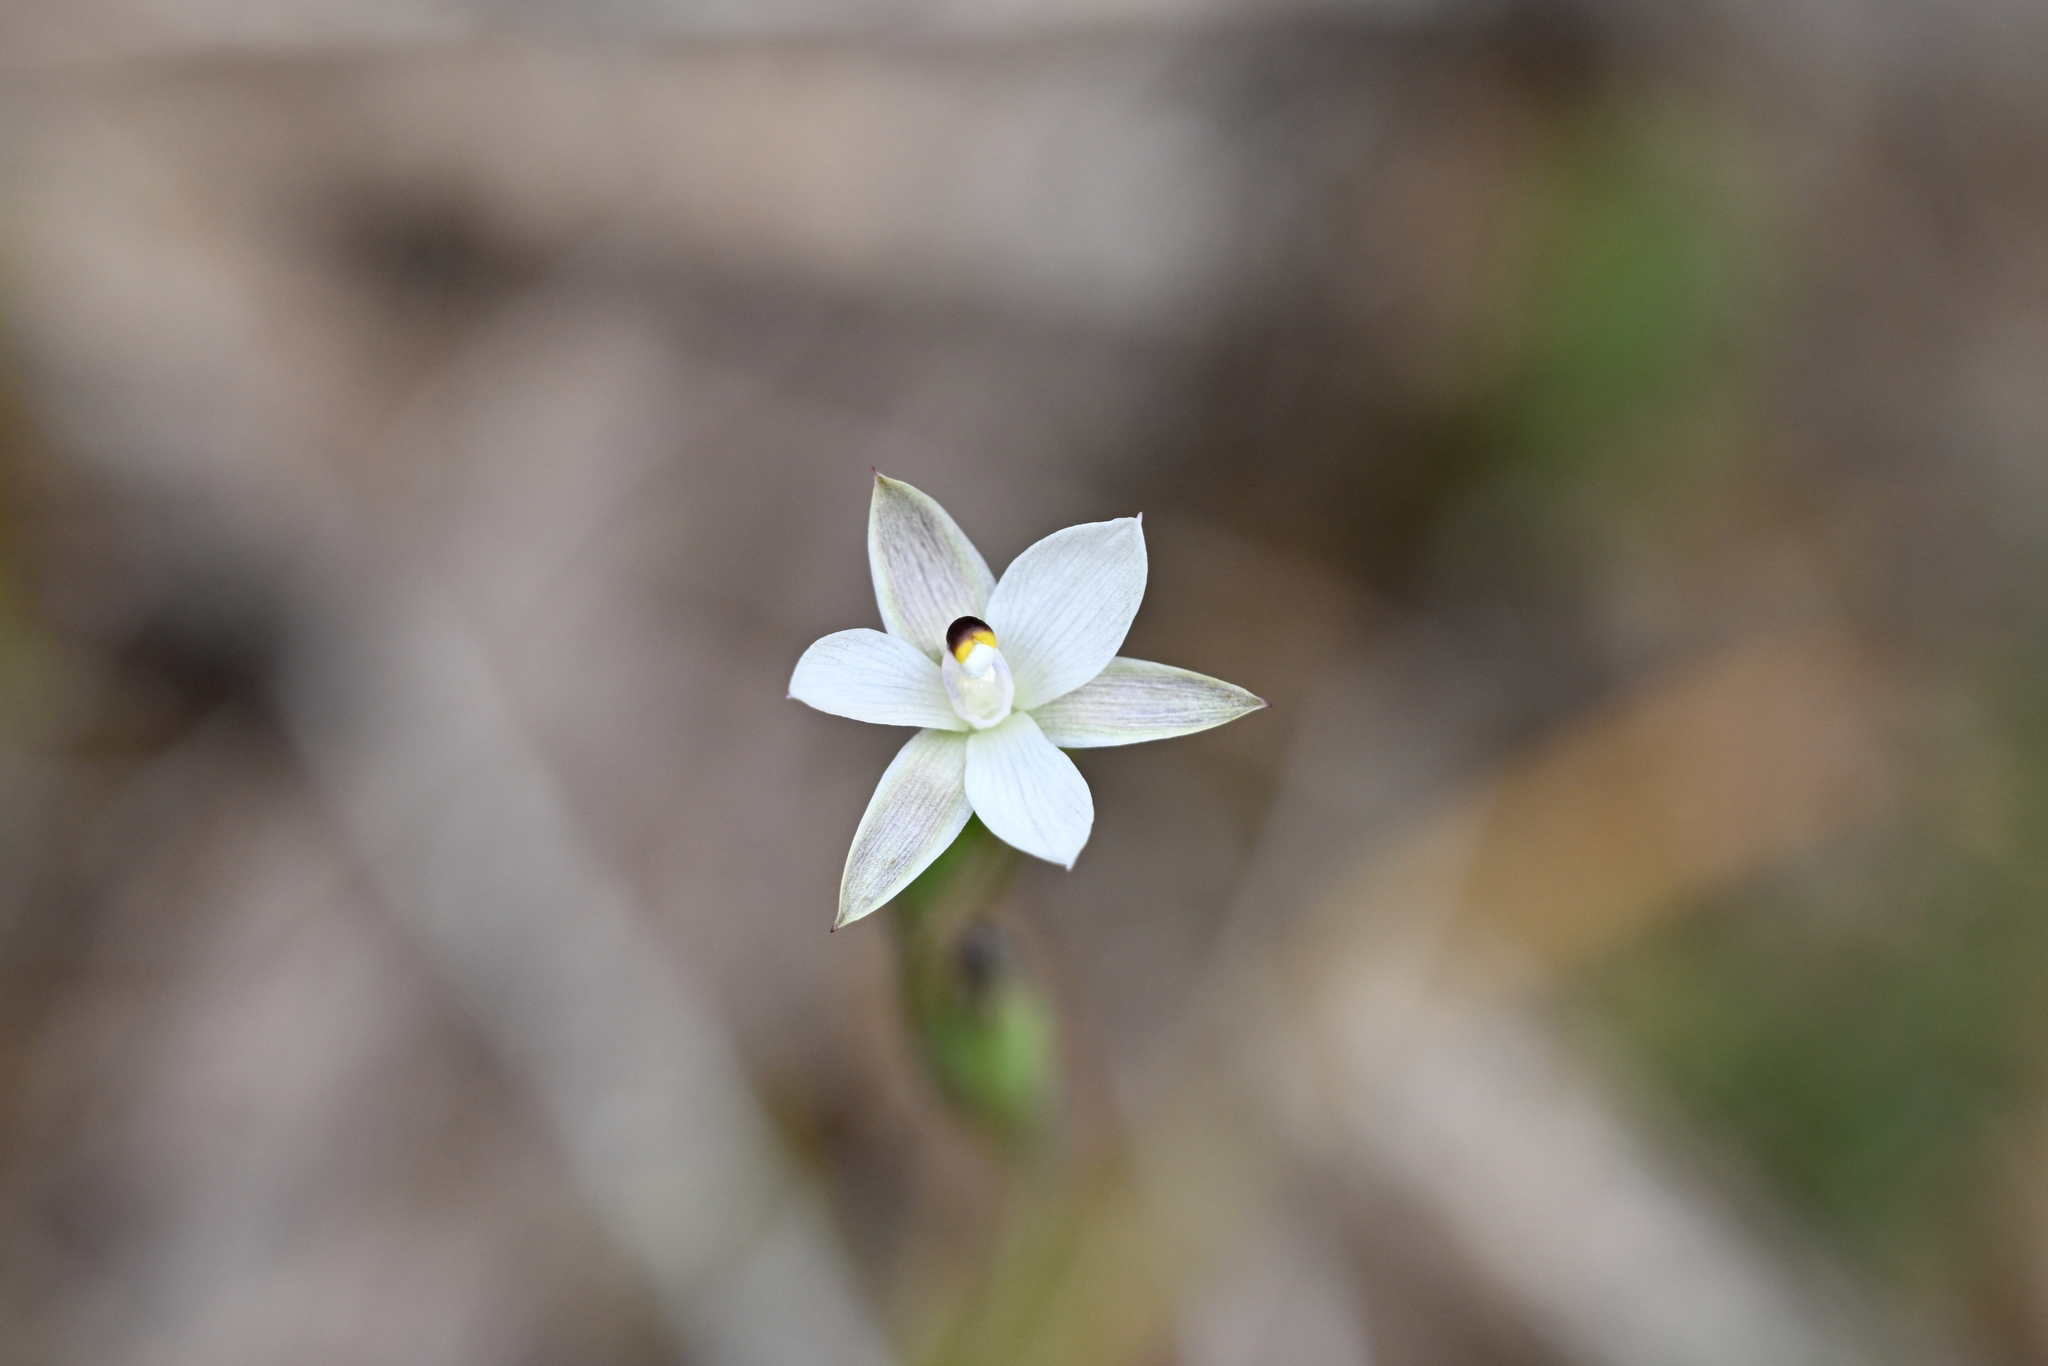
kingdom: Plantae
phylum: Tracheophyta
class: Liliopsida
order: Asparagales
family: Orchidaceae
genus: Thelymitra
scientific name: Thelymitra longifolia
